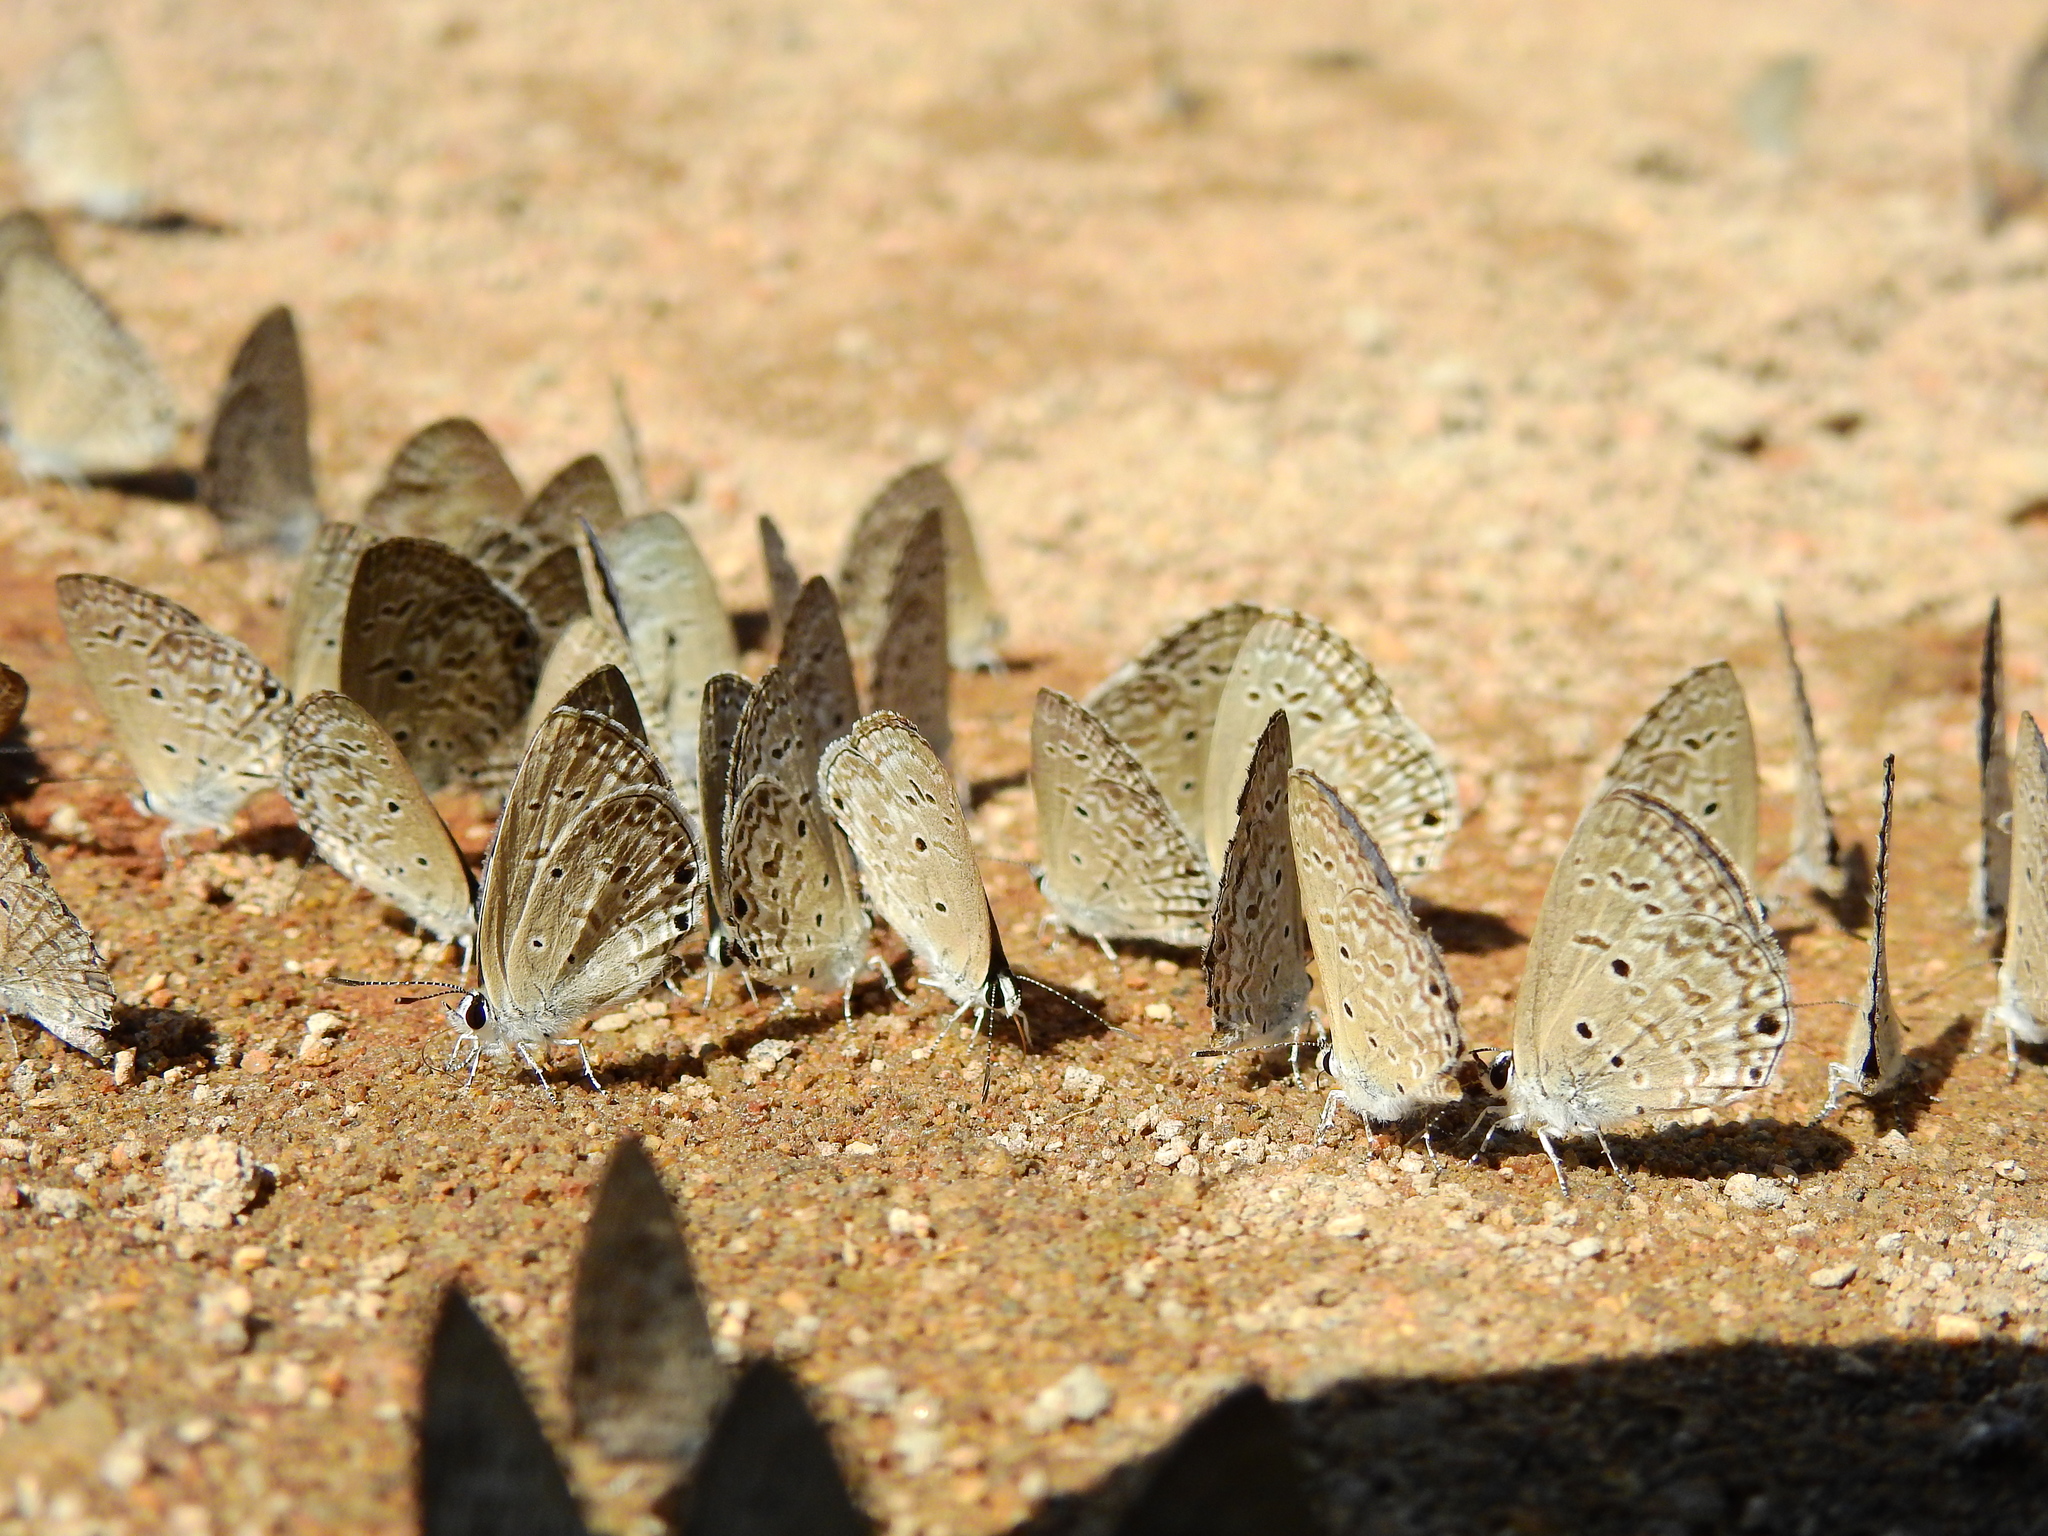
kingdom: Animalia
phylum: Arthropoda
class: Insecta
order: Lepidoptera
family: Lycaenidae
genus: Chilades
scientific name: Chilades laius
